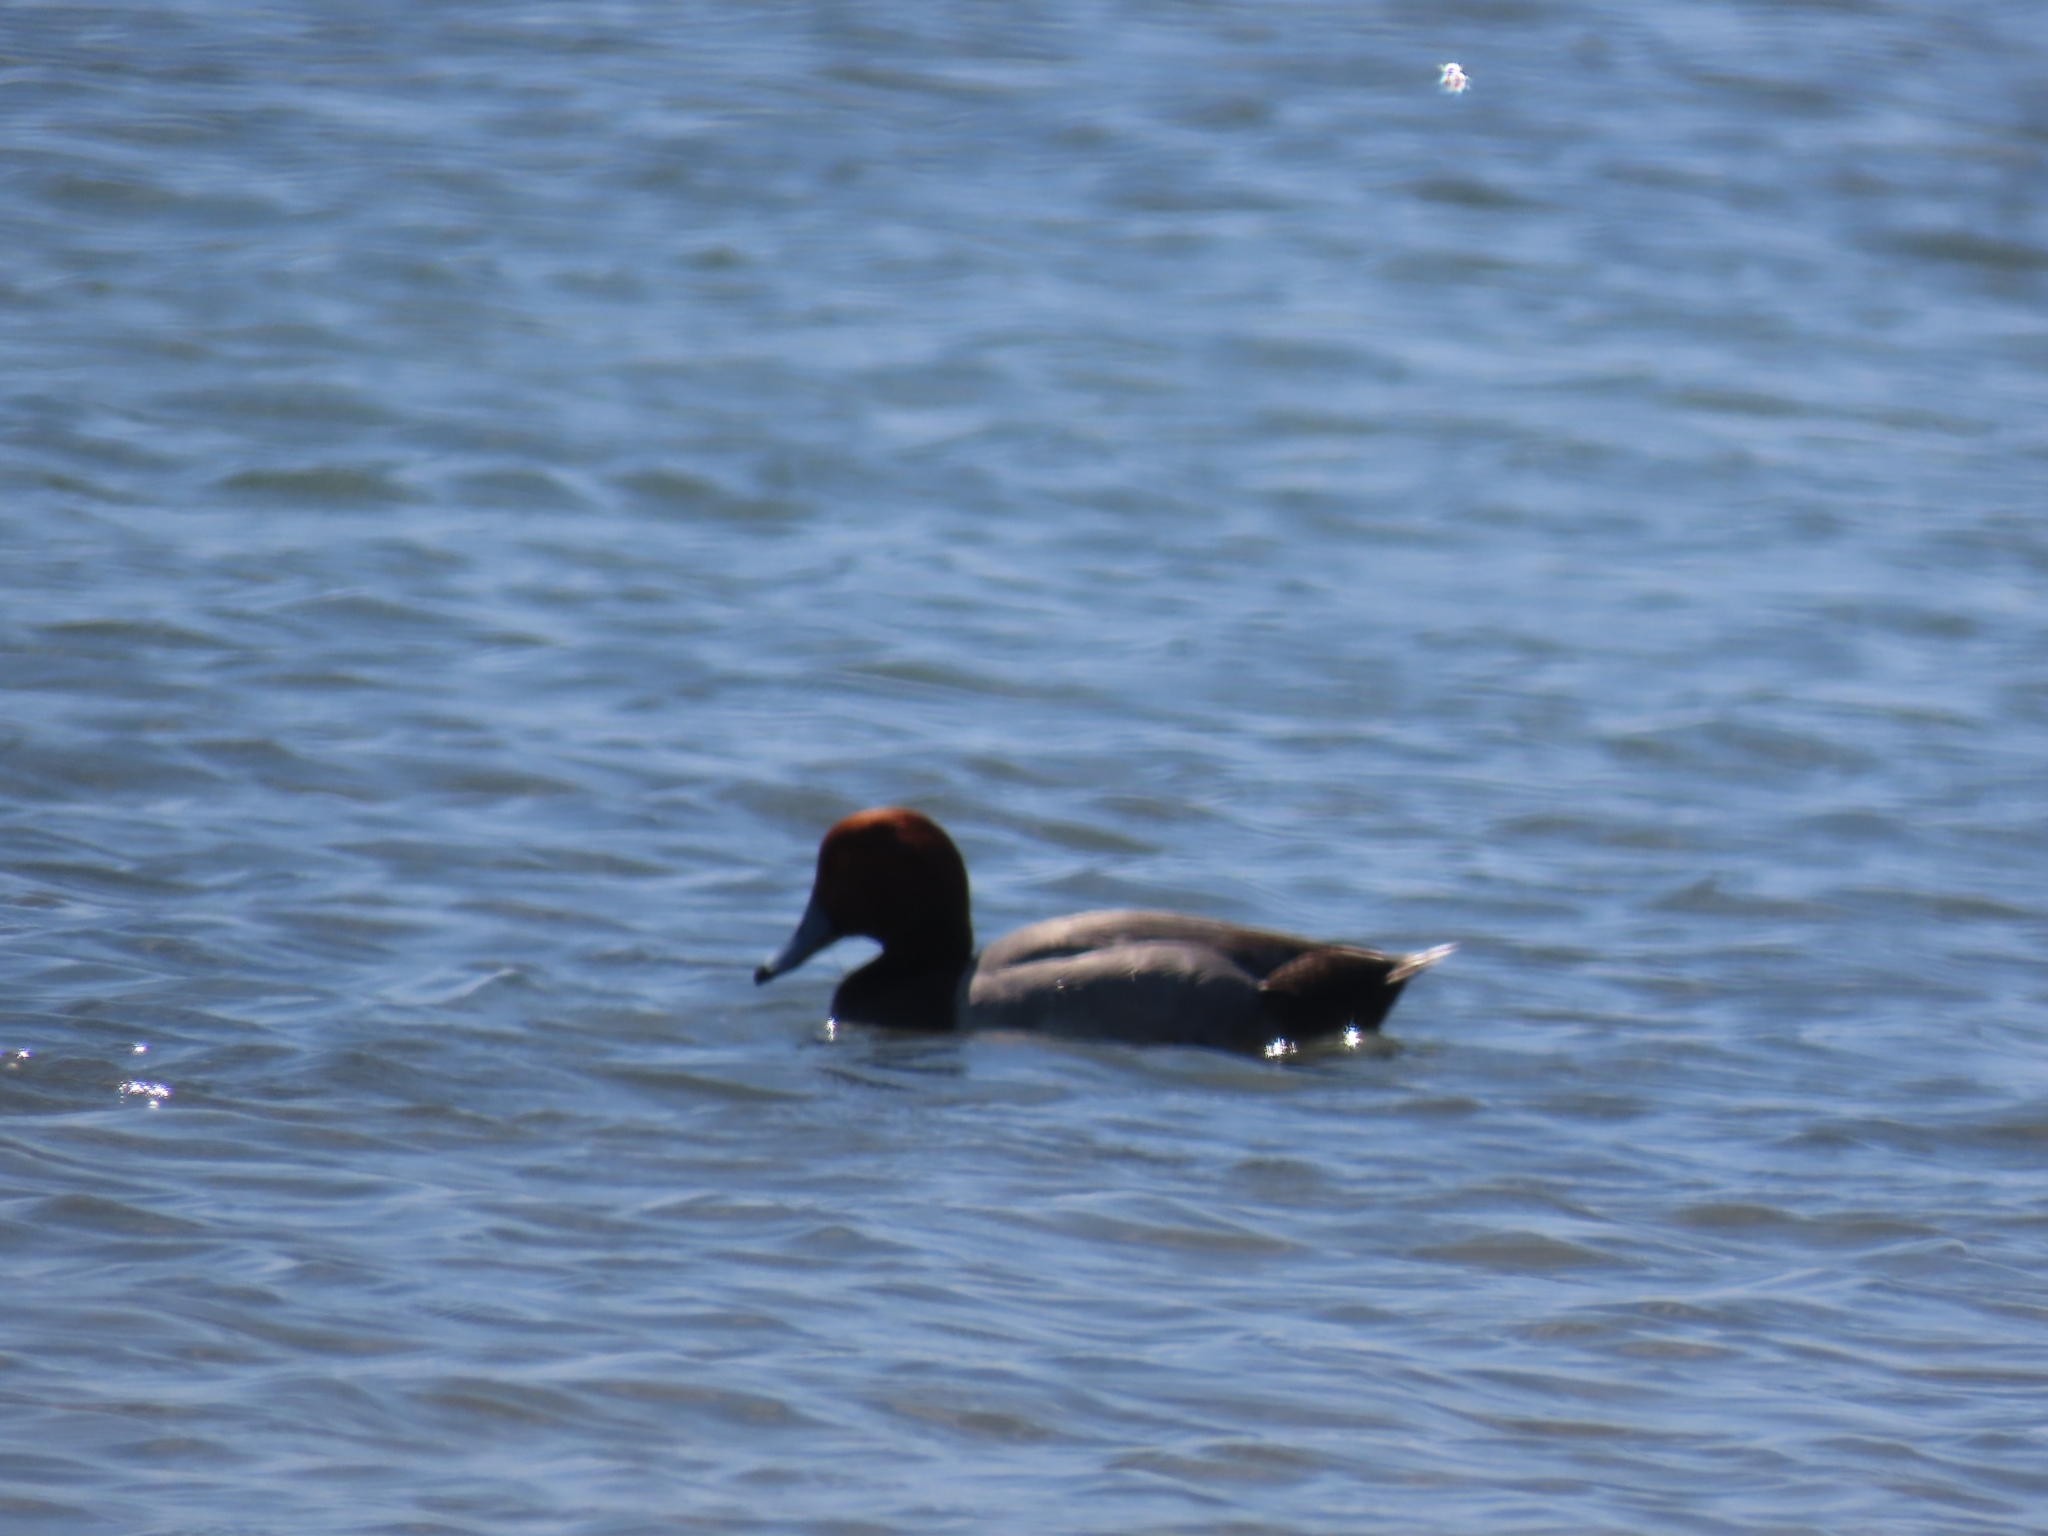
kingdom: Animalia
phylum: Chordata
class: Aves
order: Anseriformes
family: Anatidae
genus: Aythya
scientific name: Aythya americana
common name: Redhead
